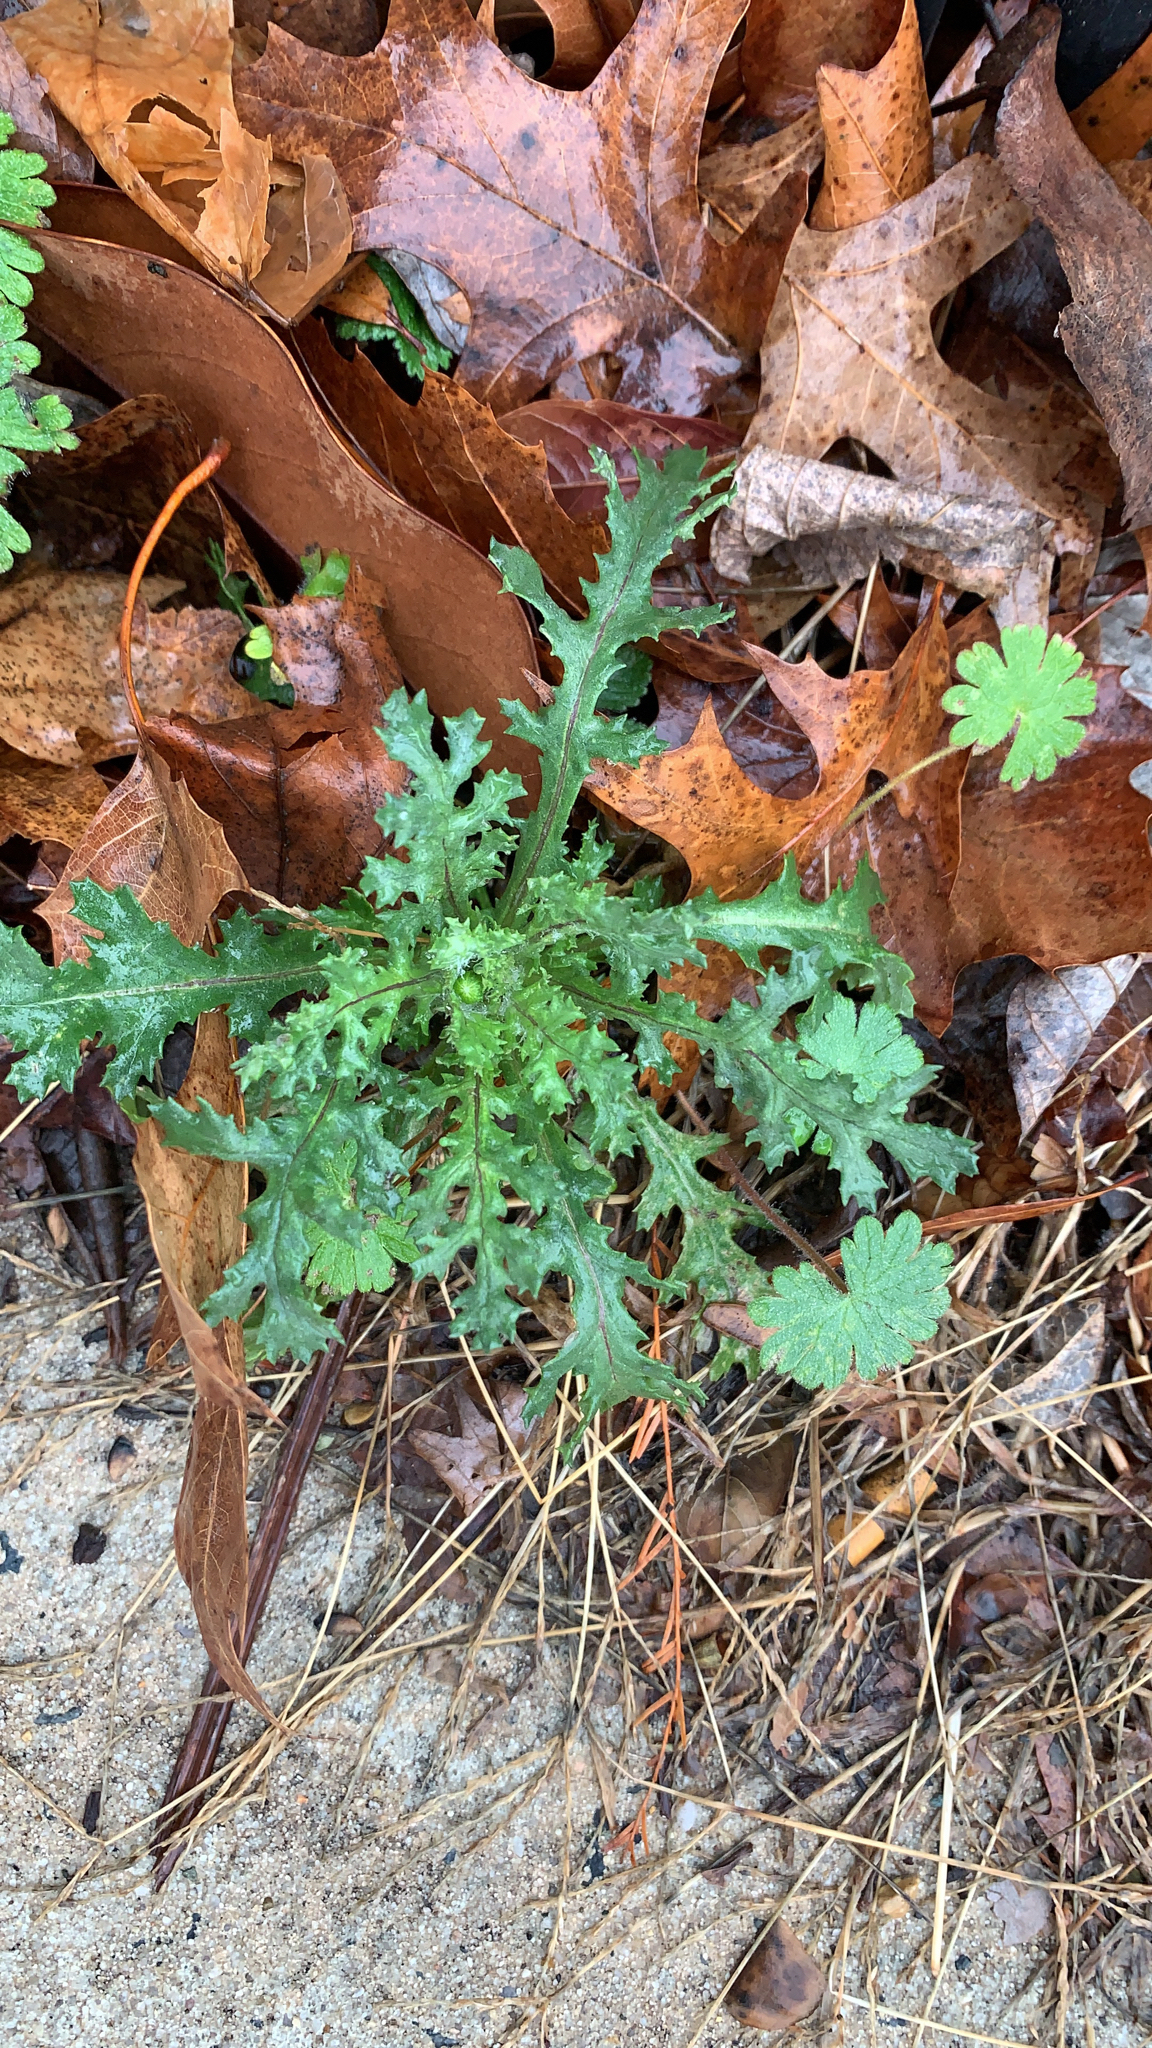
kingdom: Plantae
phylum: Tracheophyta
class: Magnoliopsida
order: Asterales
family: Asteraceae
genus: Senecio
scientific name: Senecio vulgaris
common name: Old-man-in-the-spring
